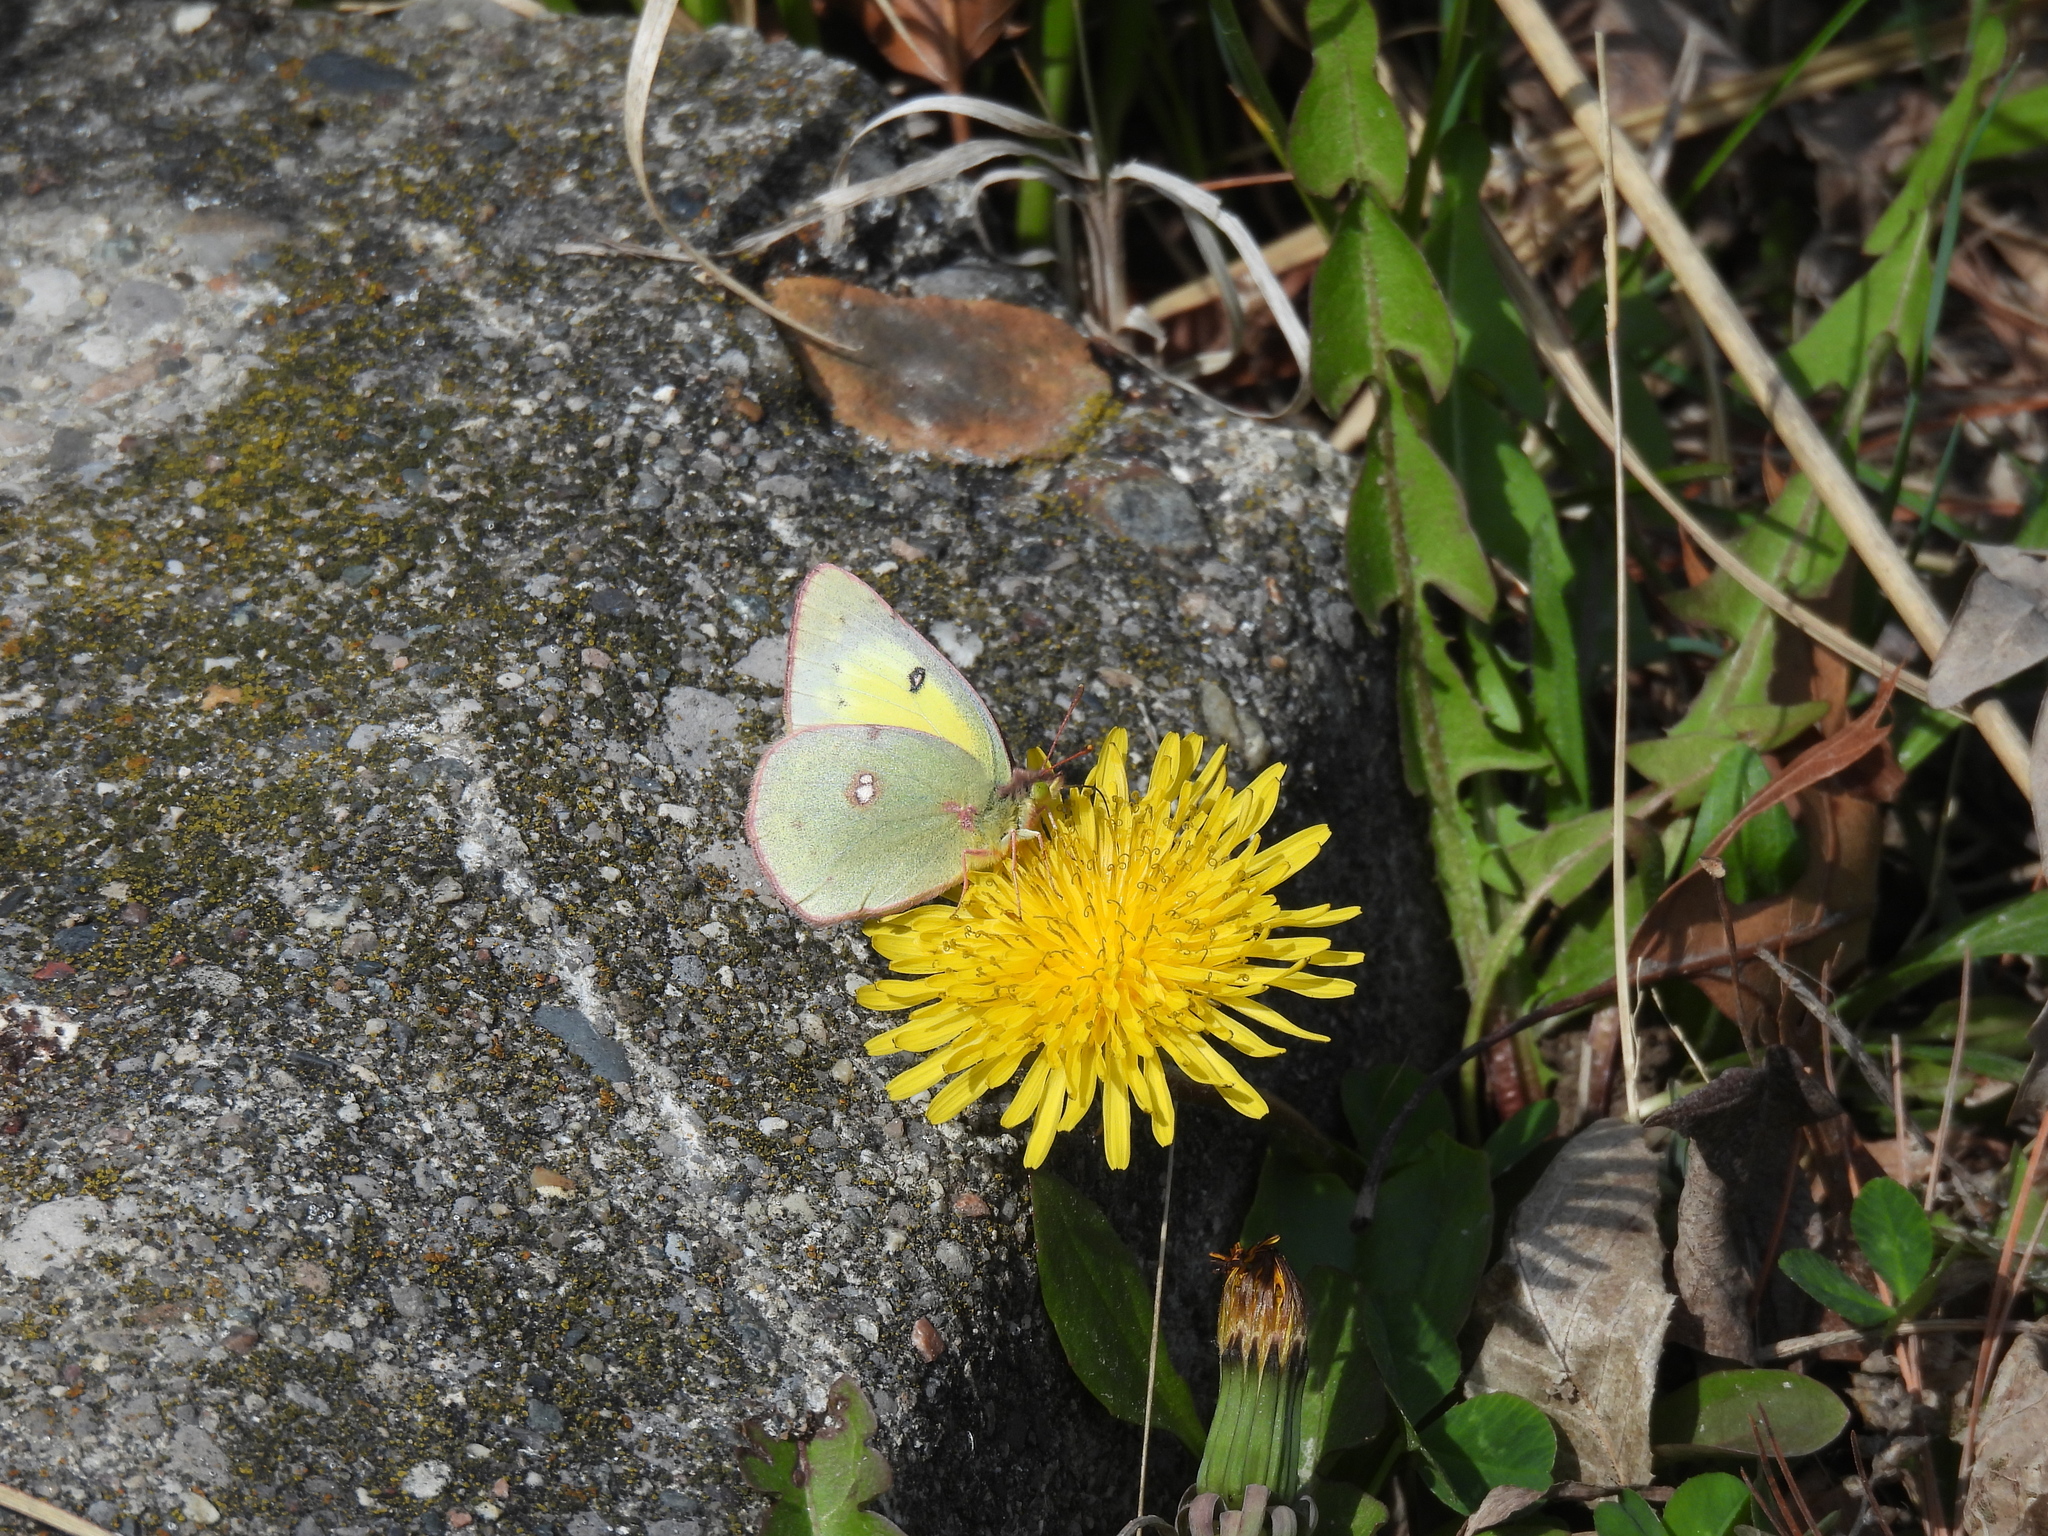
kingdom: Animalia
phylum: Arthropoda
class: Insecta
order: Lepidoptera
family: Pieridae
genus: Colias
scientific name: Colias philodice
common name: Clouded sulphur
